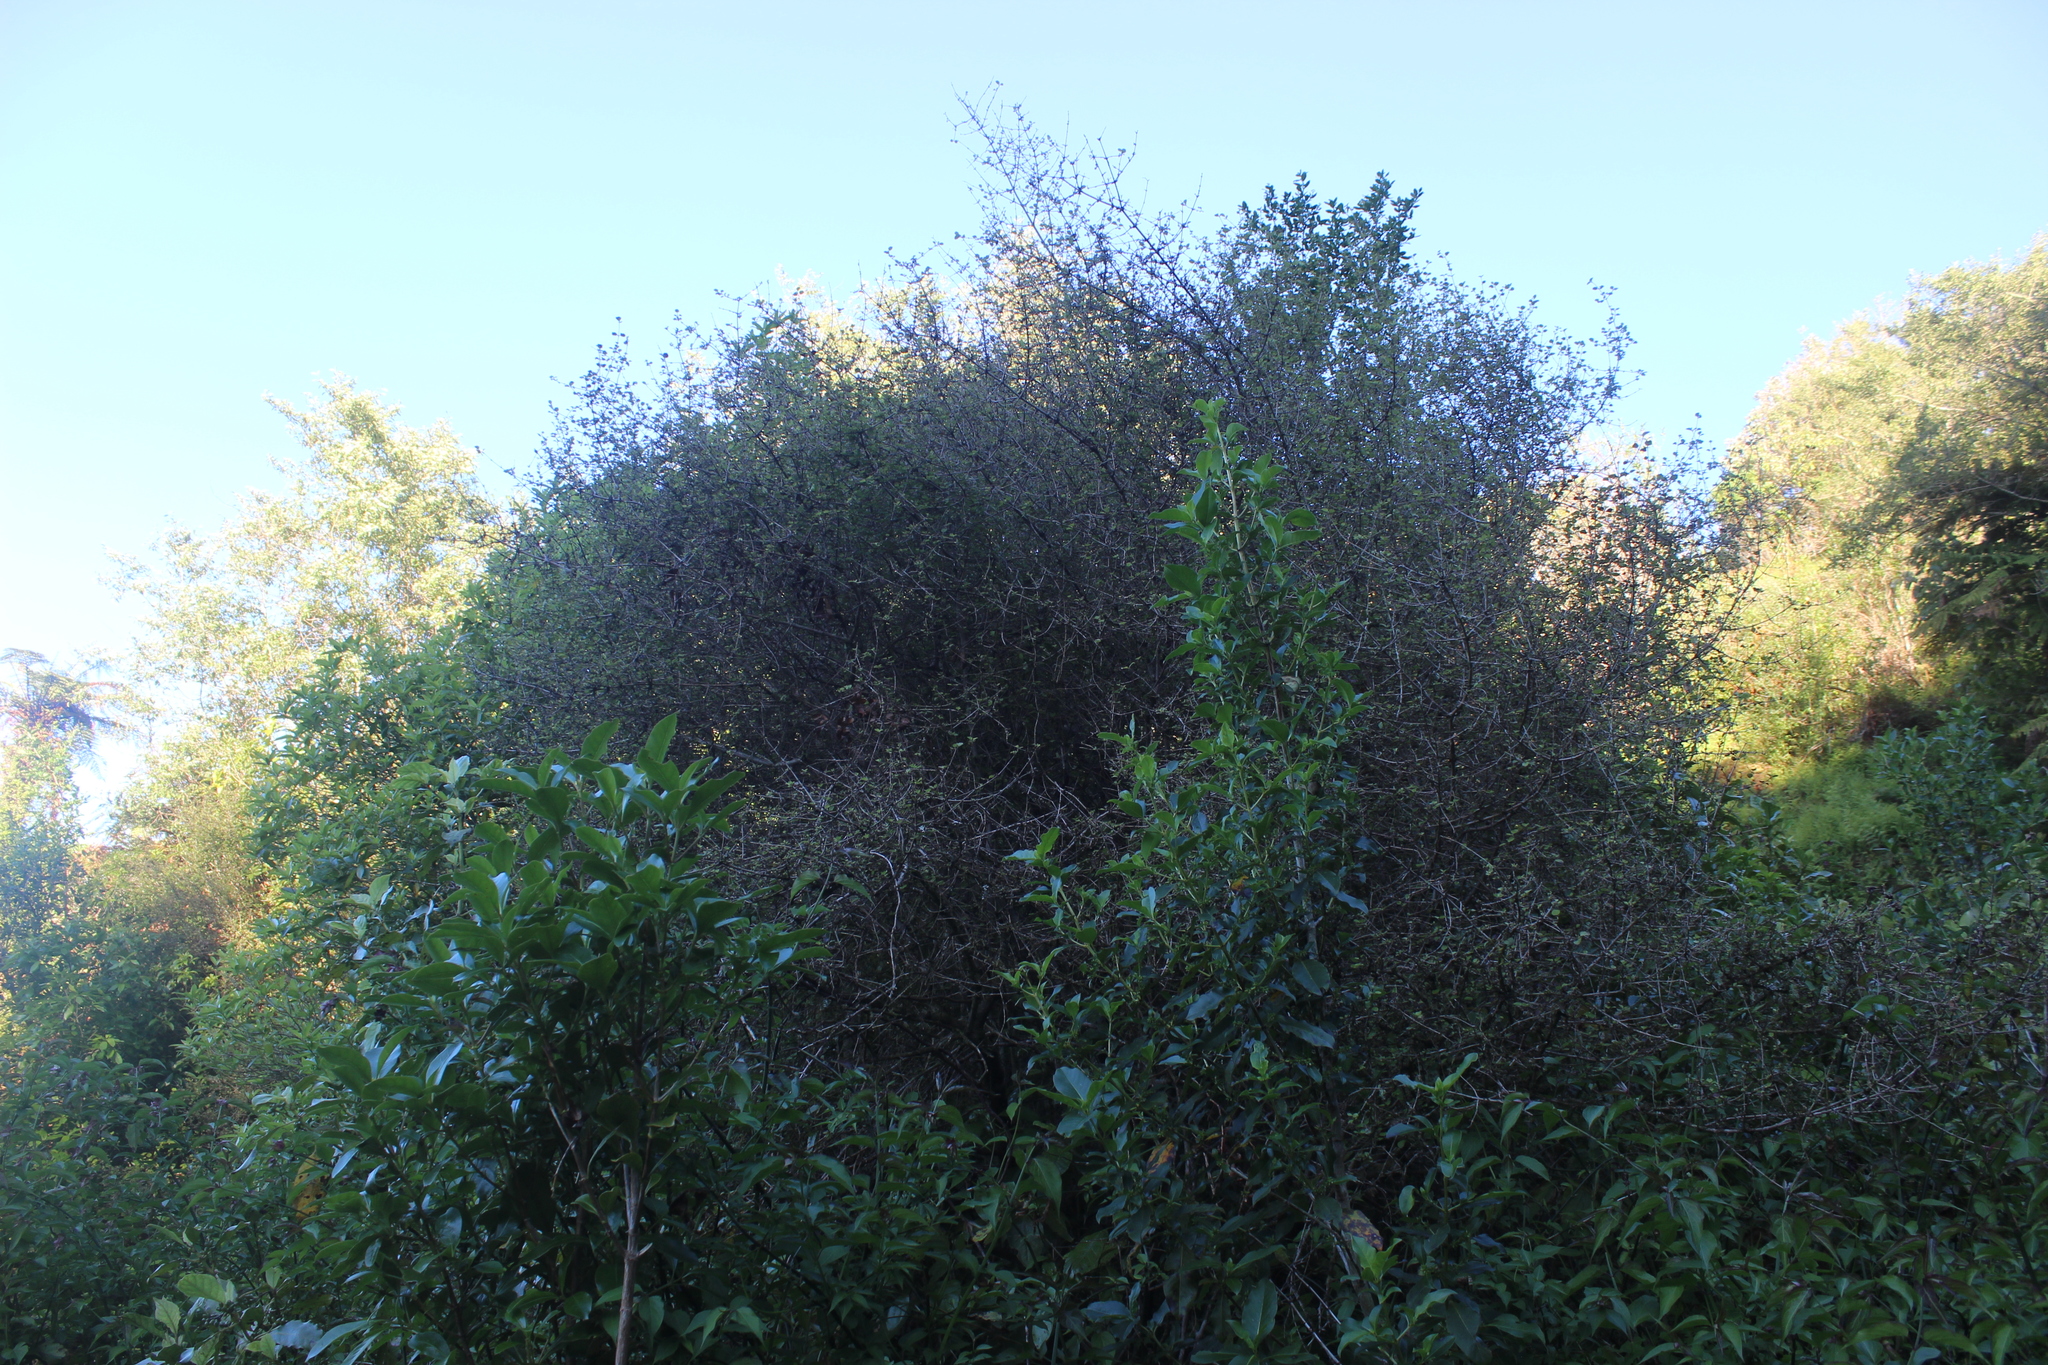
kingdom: Plantae
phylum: Tracheophyta
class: Magnoliopsida
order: Gentianales
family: Rubiaceae
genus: Coprosma
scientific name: Coprosma rotundifolia
